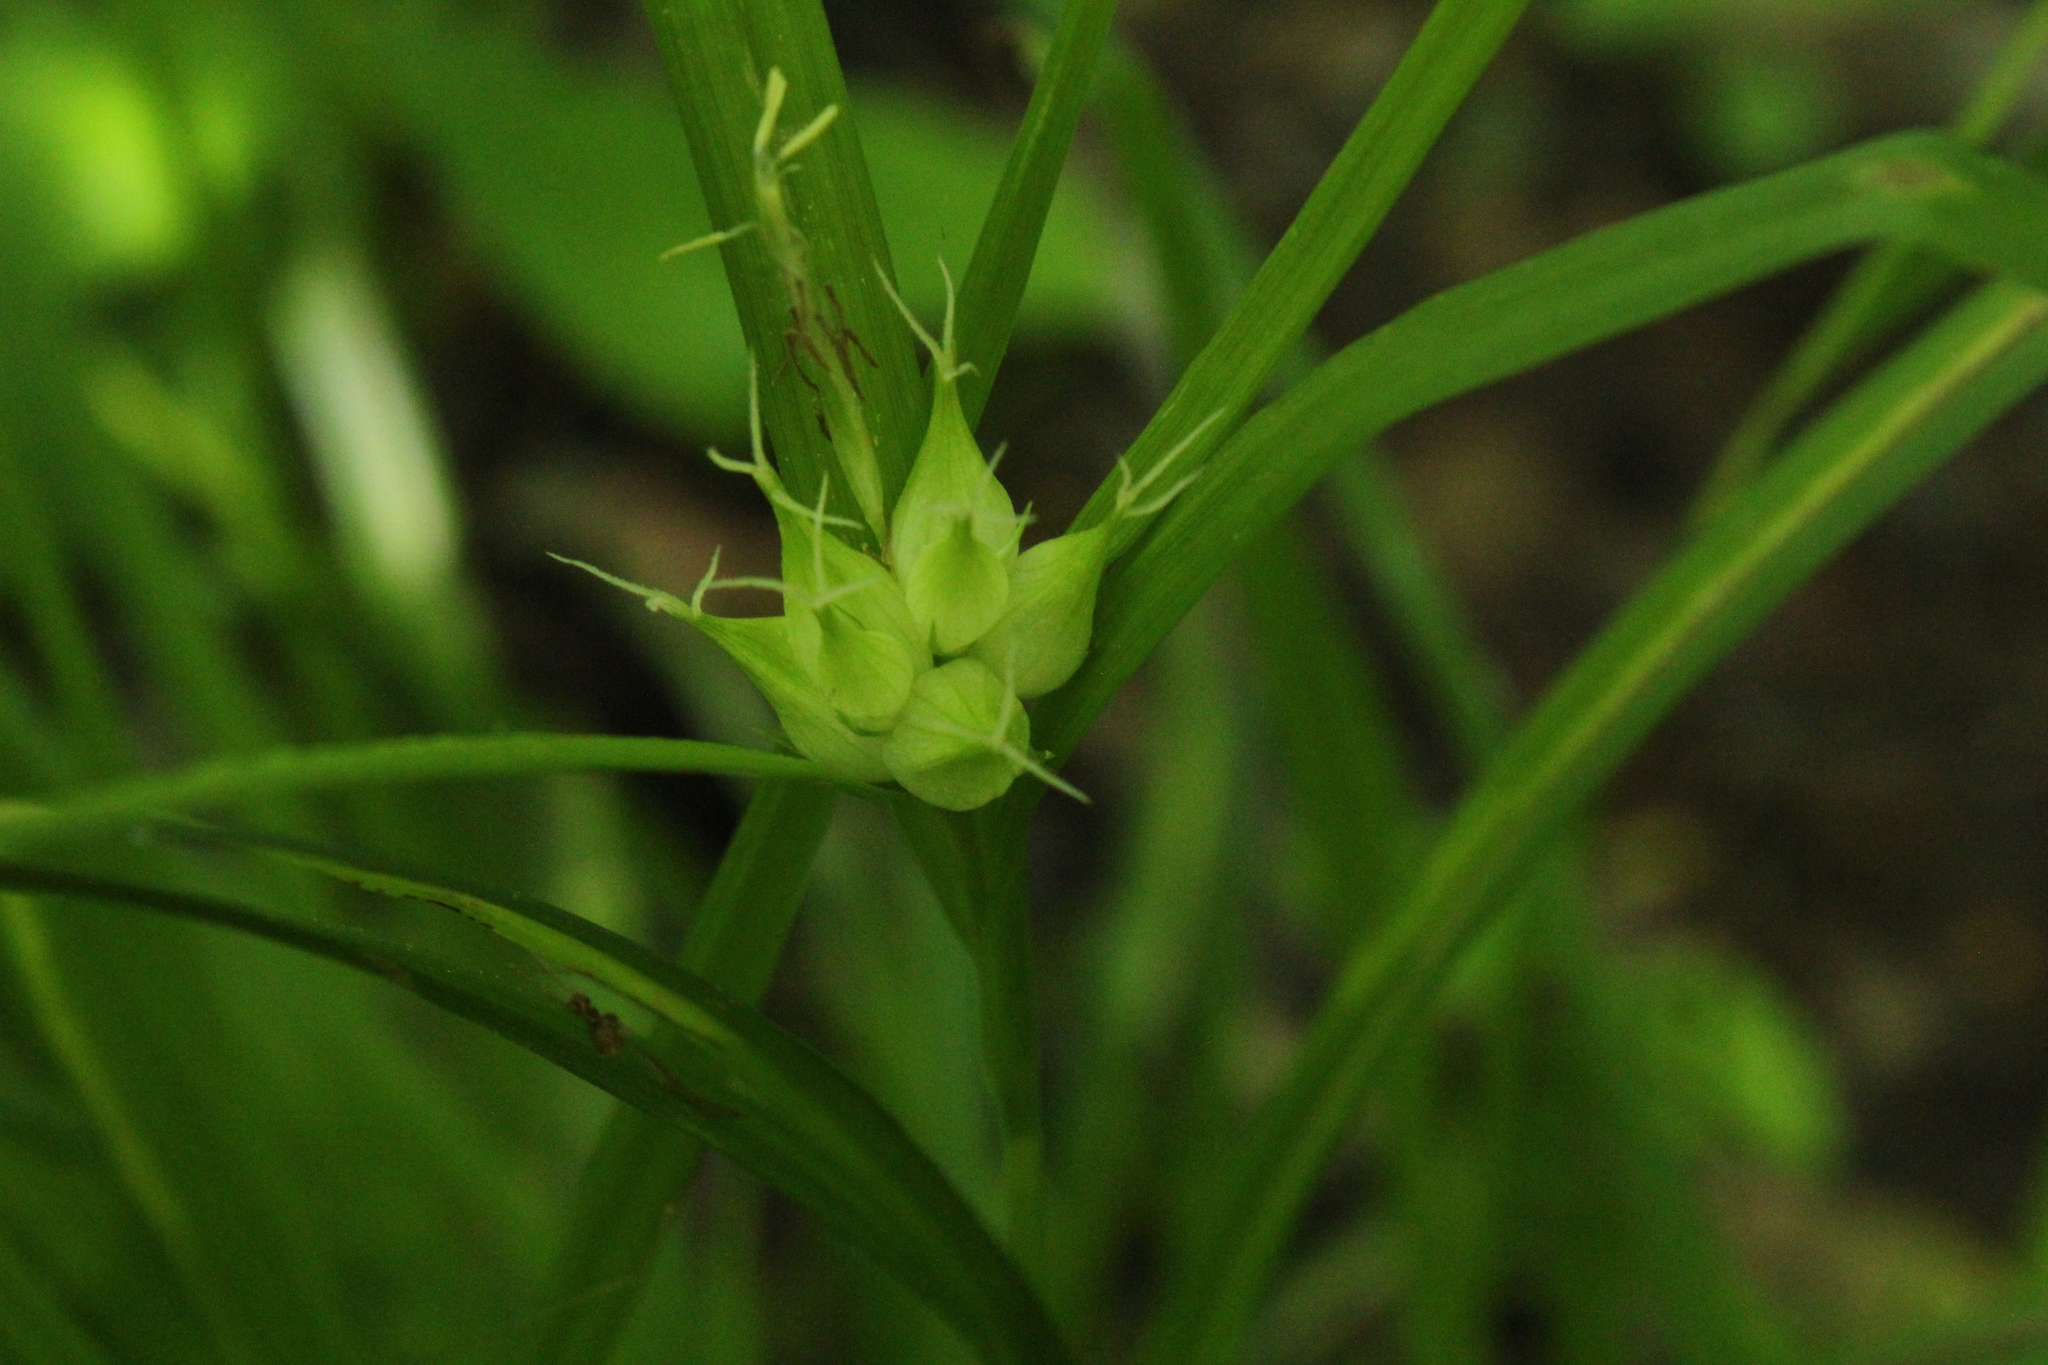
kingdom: Plantae
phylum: Tracheophyta
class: Liliopsida
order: Poales
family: Cyperaceae
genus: Carex
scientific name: Carex intumescens
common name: Greater bladder sedge
